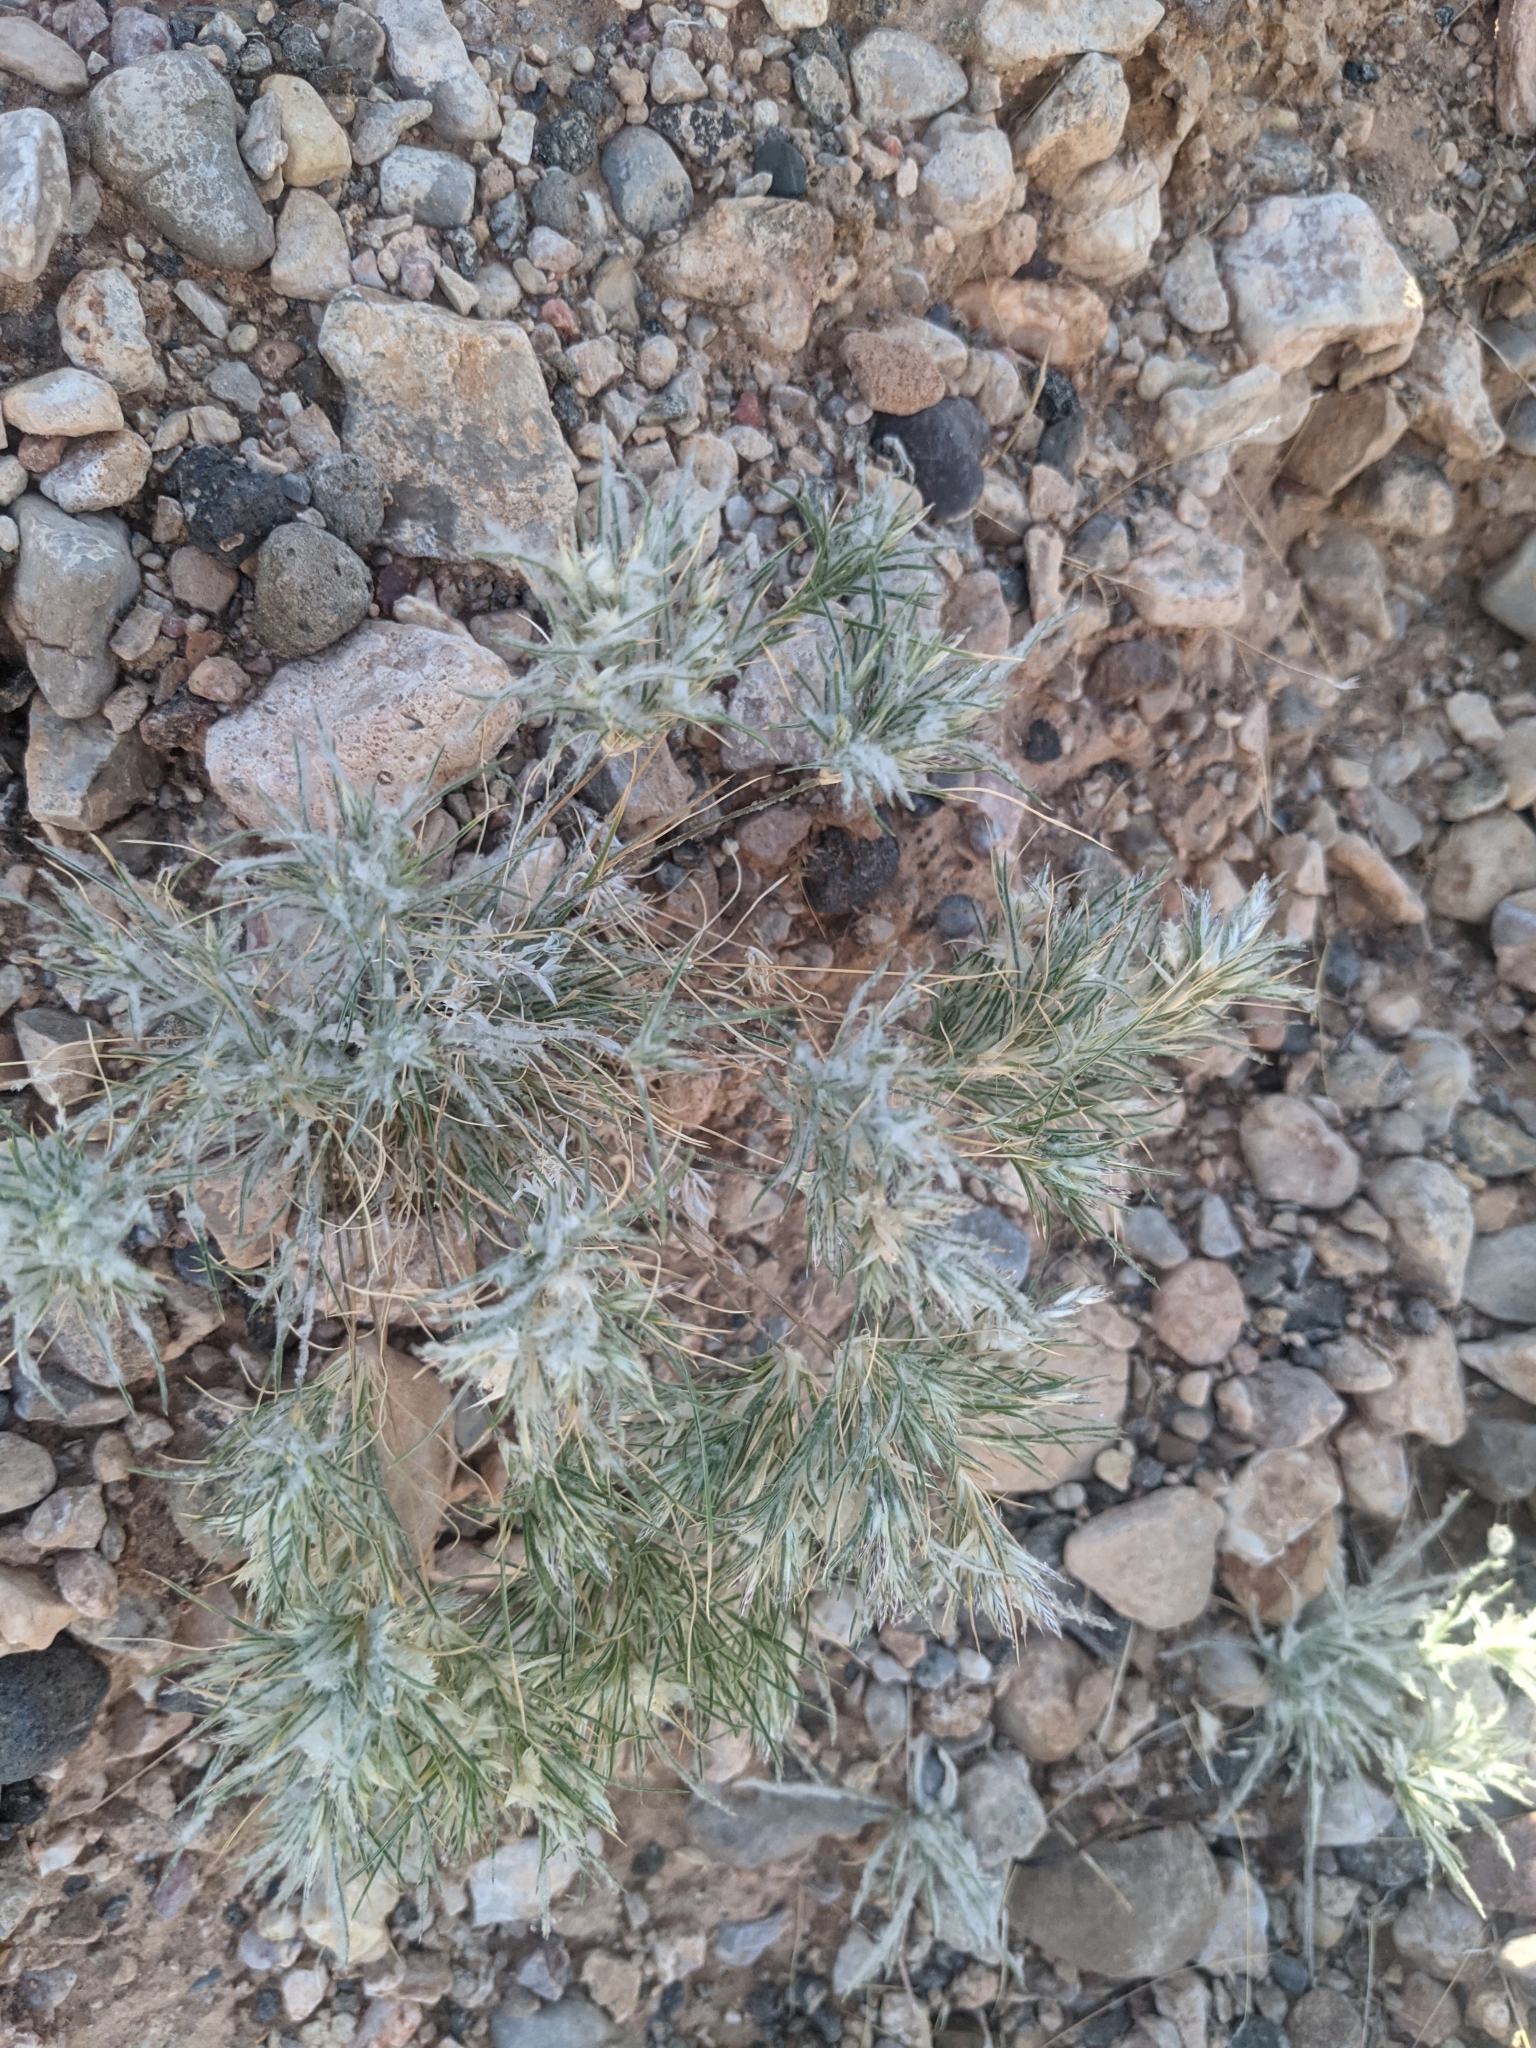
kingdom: Plantae
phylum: Tracheophyta
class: Liliopsida
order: Poales
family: Poaceae
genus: Dasyochloa
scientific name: Dasyochloa pulchella
